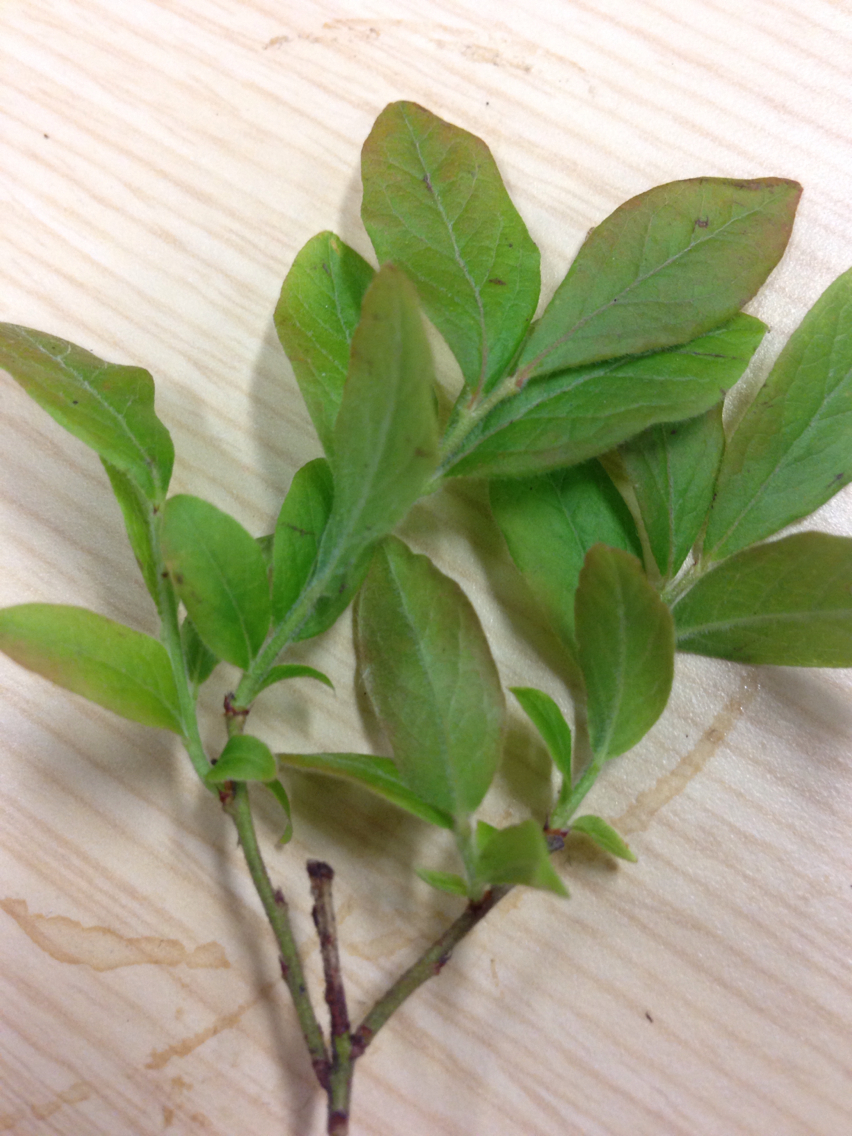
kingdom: Plantae
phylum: Tracheophyta
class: Magnoliopsida
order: Ericales
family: Ericaceae
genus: Vaccinium
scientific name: Vaccinium myrtilloides
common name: Canada blueberry
